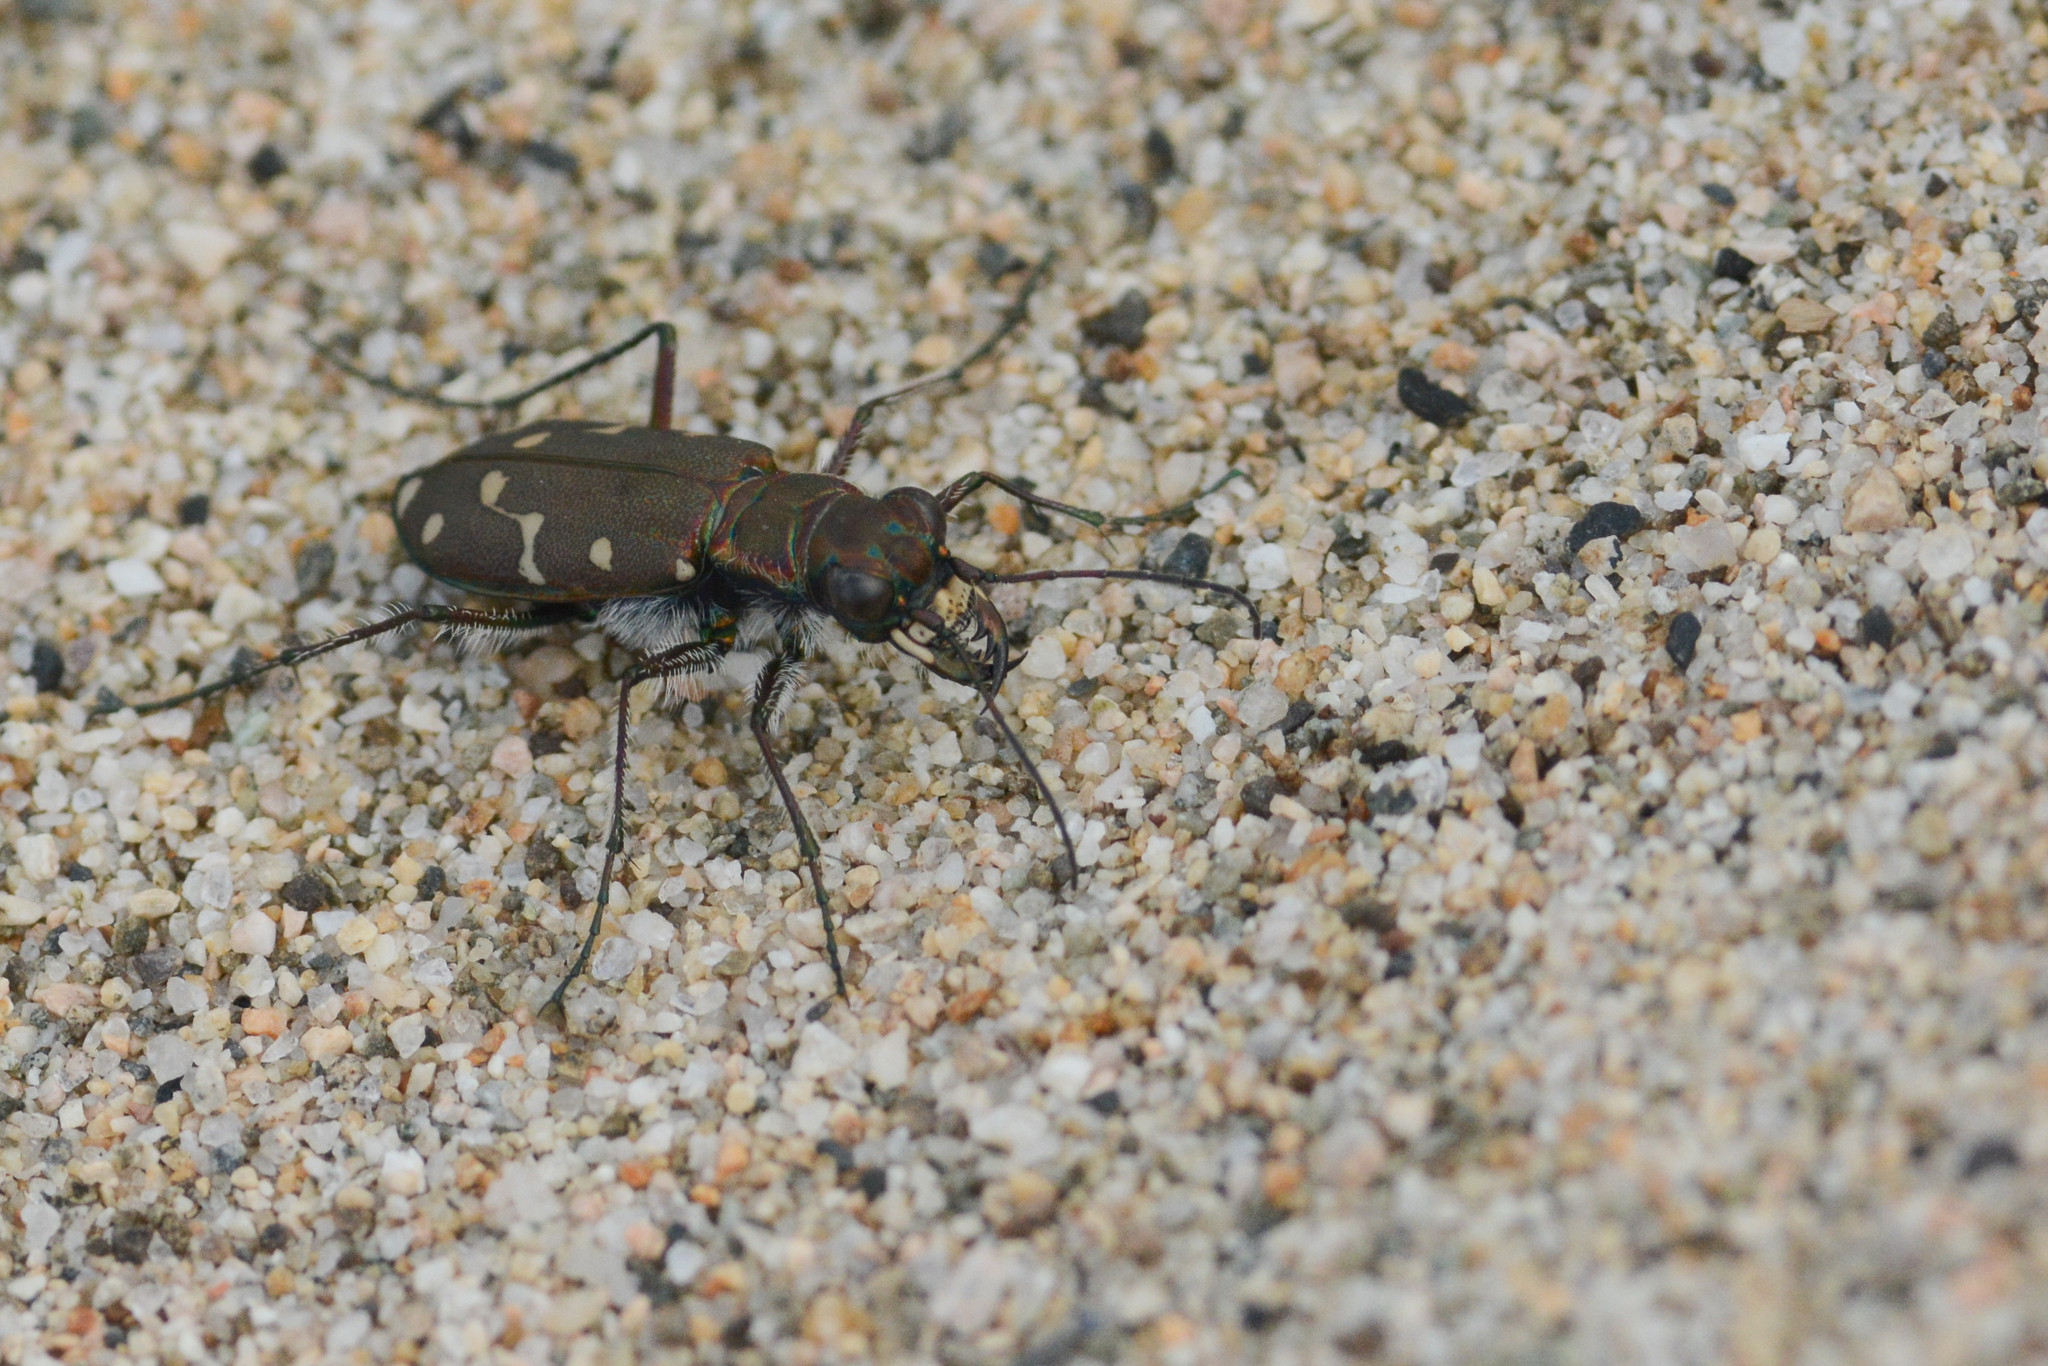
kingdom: Animalia
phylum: Arthropoda
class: Insecta
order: Coleoptera
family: Carabidae
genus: Cicindela
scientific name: Cicindela oregona
